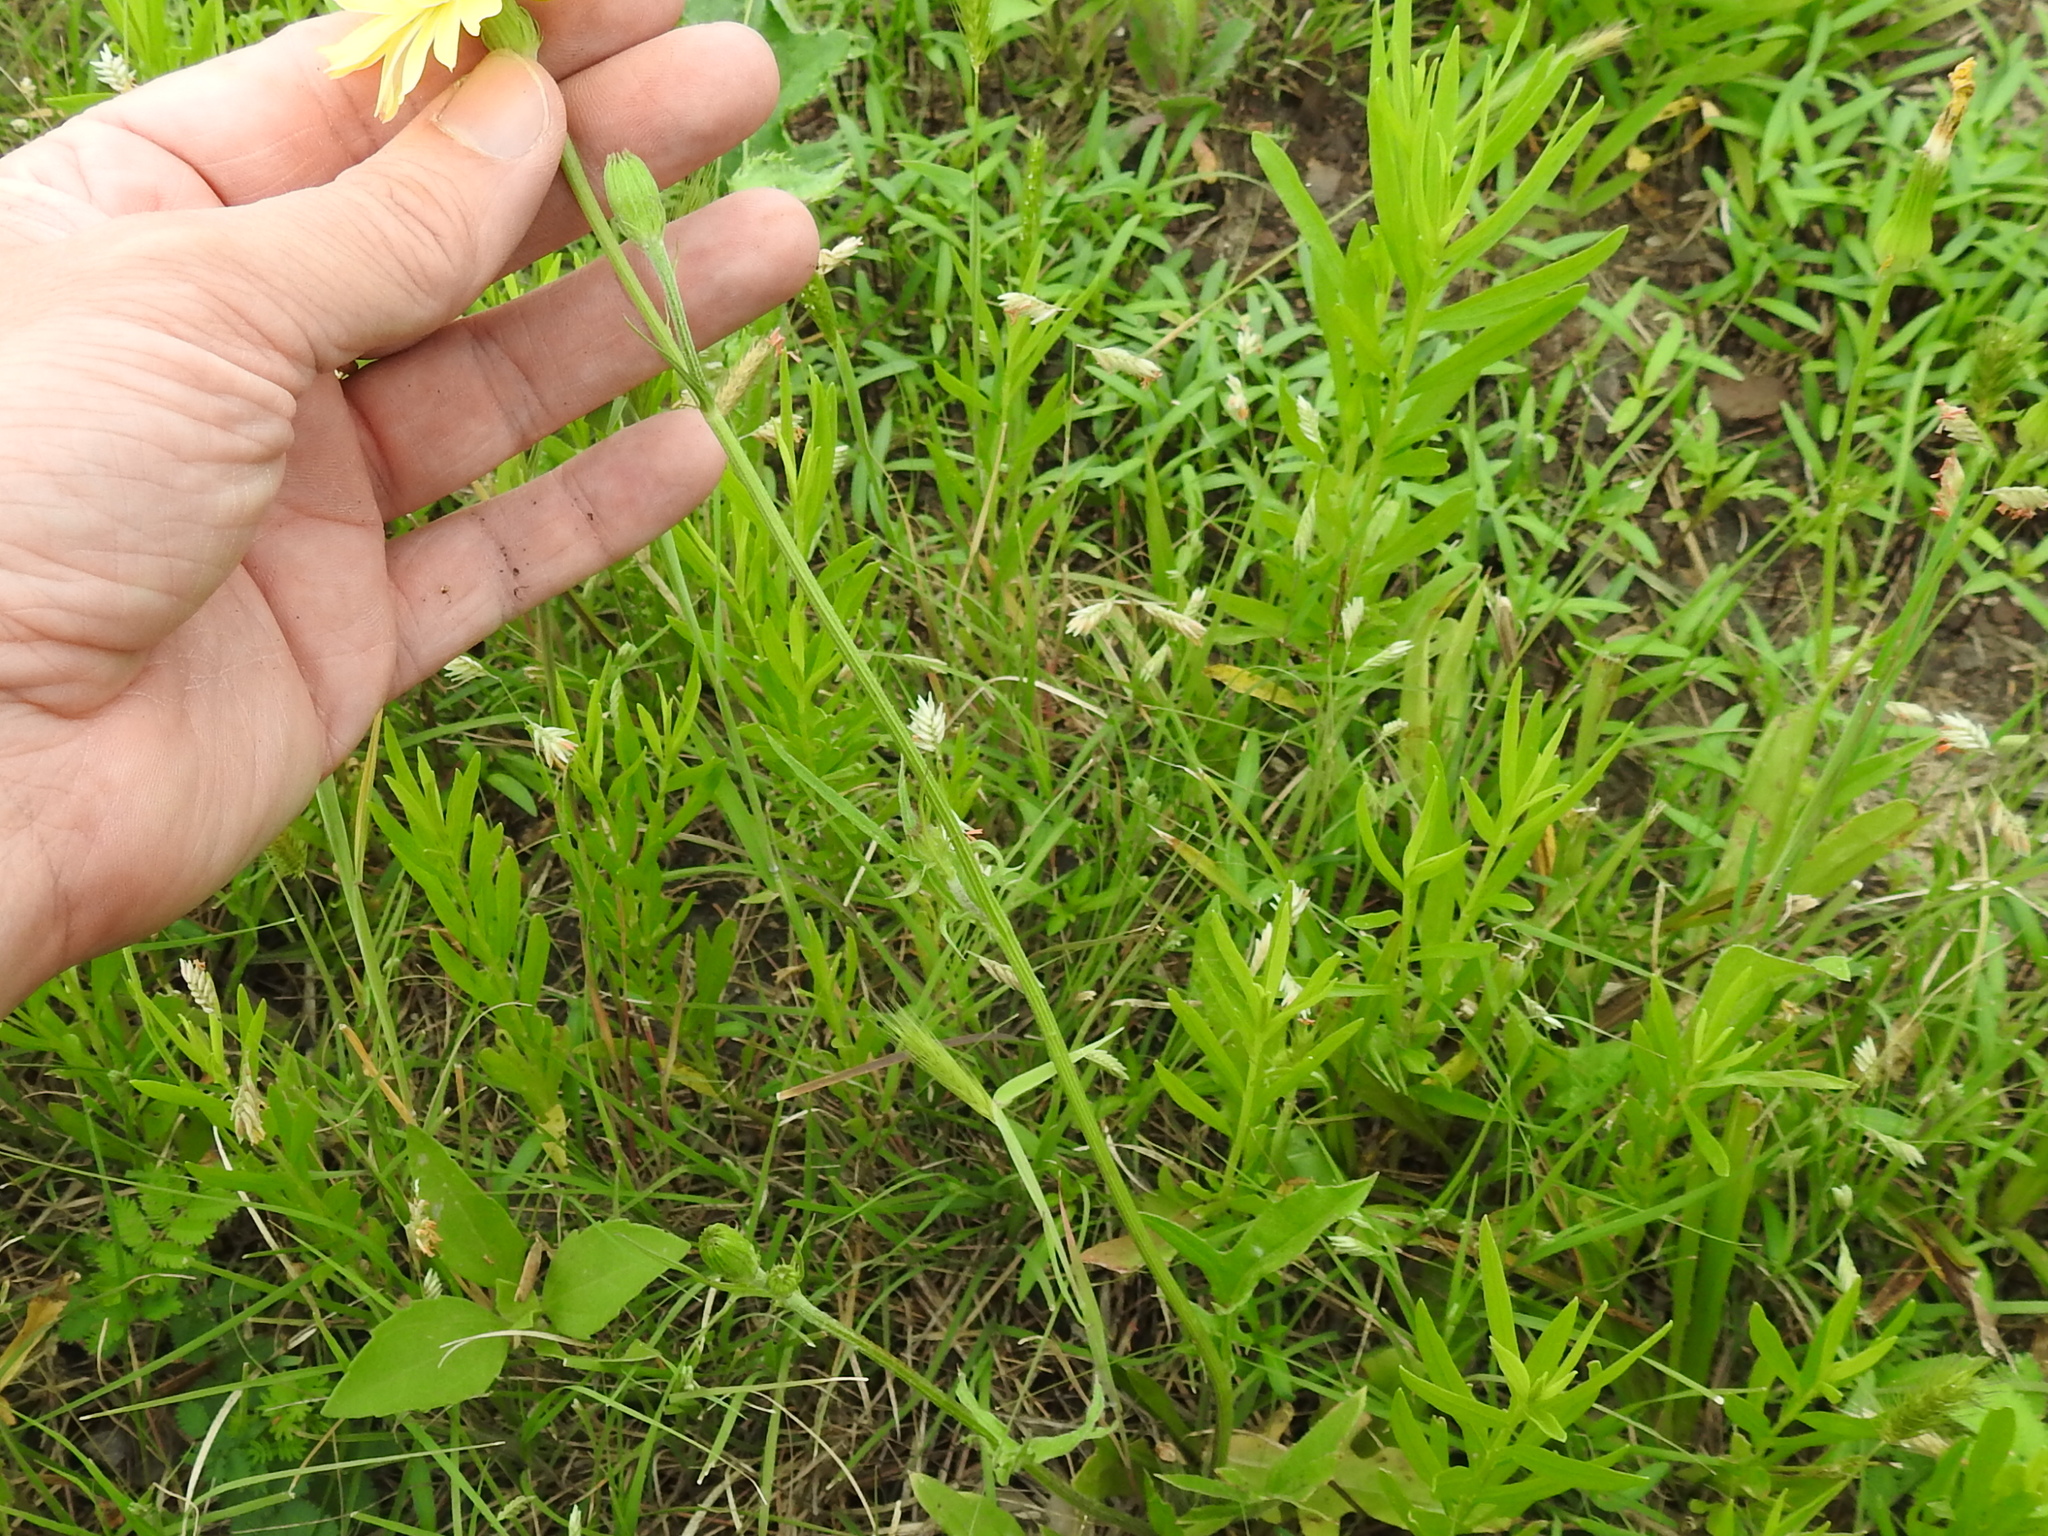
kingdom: Plantae
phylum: Tracheophyta
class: Magnoliopsida
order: Asterales
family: Asteraceae
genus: Pyrrhopappus
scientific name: Pyrrhopappus pauciflorus
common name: Texas false dandelion
